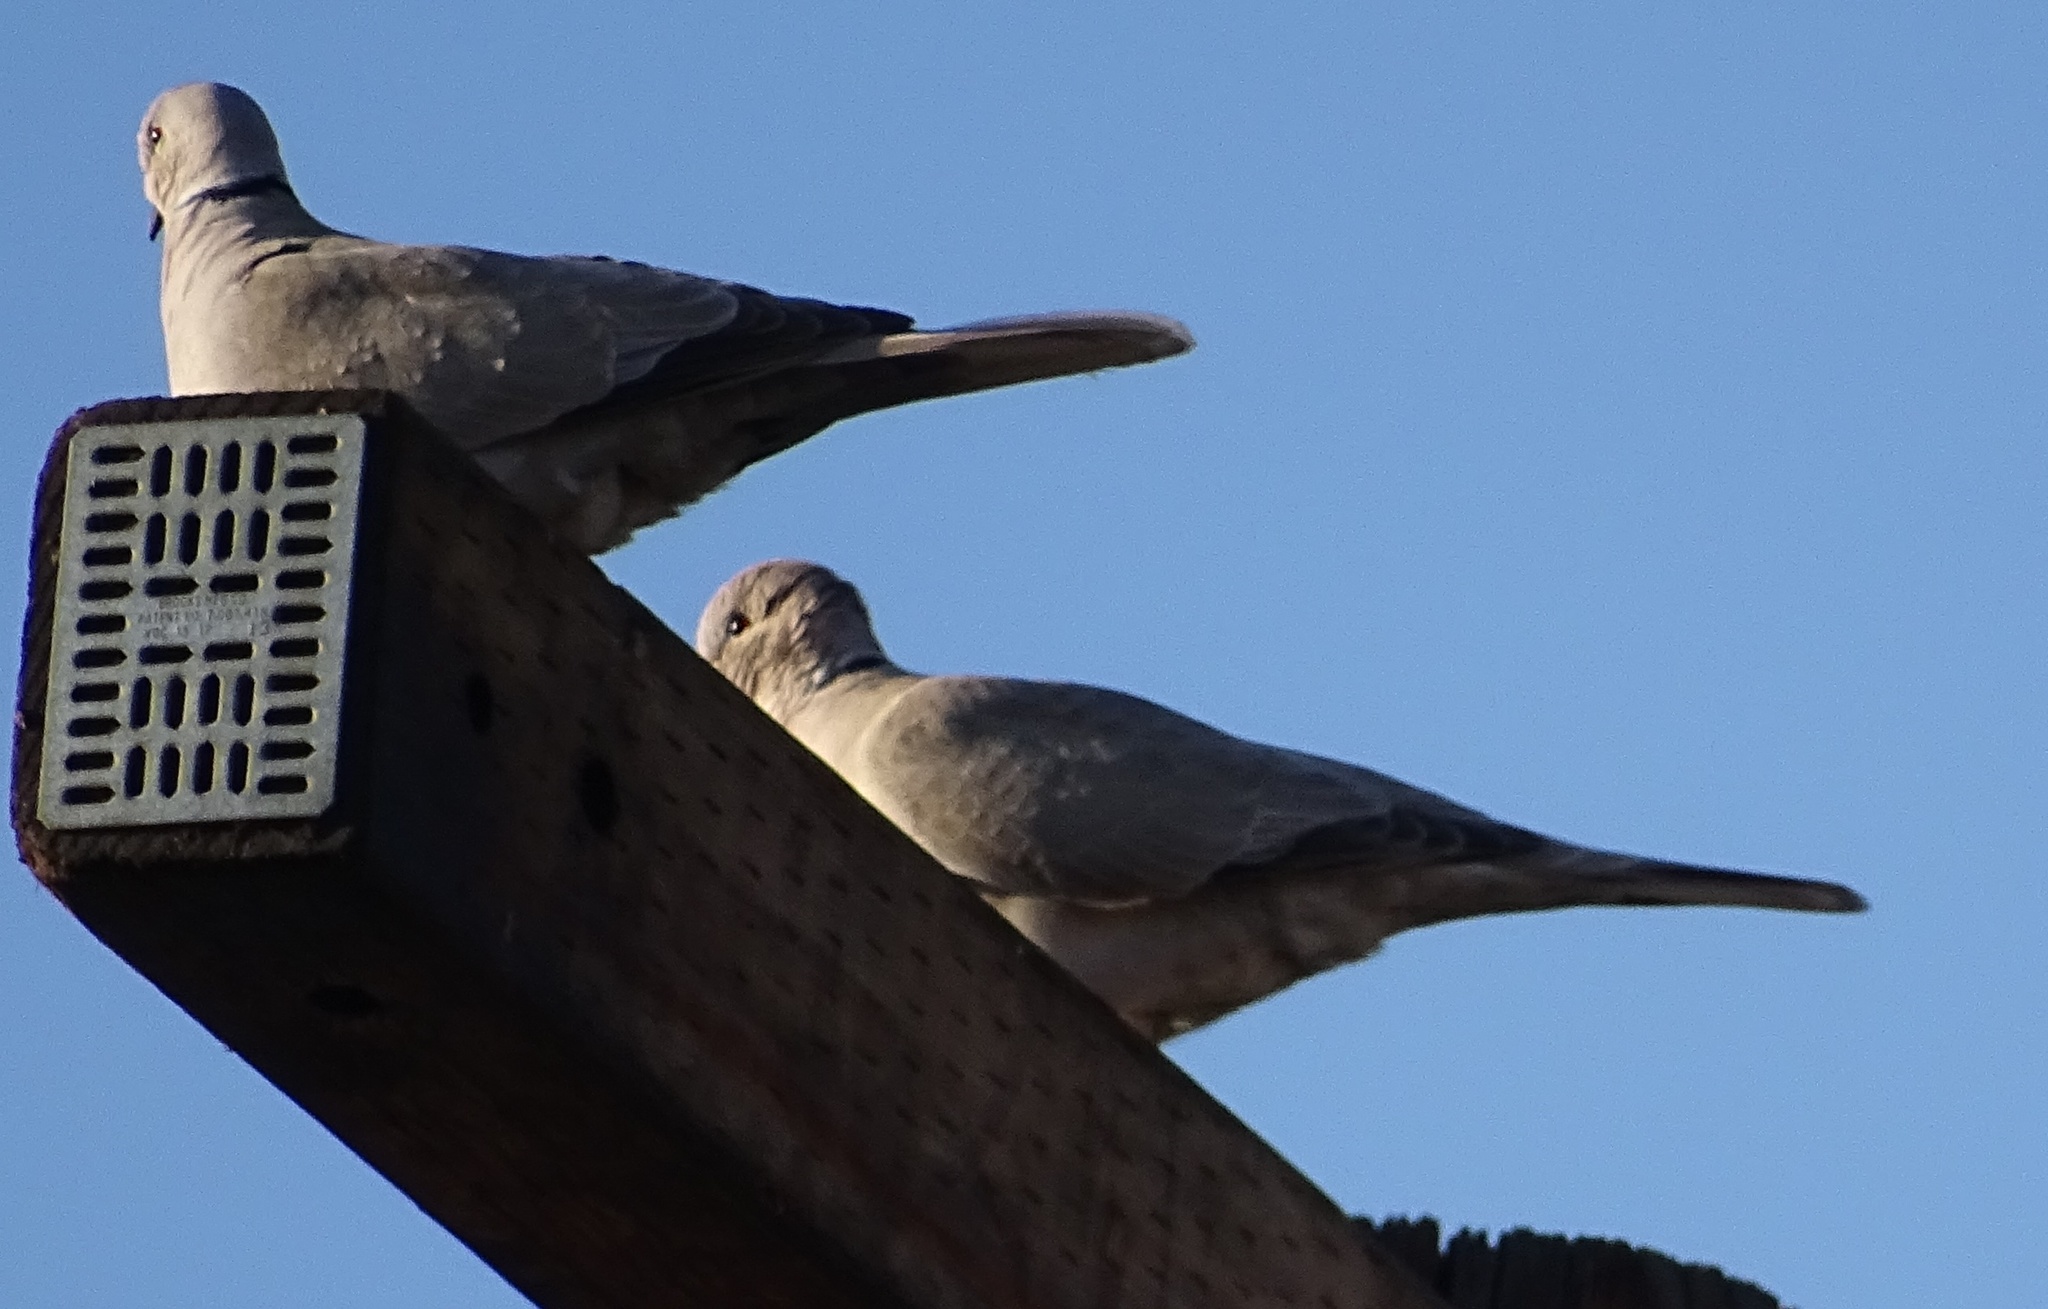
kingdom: Animalia
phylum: Chordata
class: Aves
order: Columbiformes
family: Columbidae
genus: Streptopelia
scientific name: Streptopelia decaocto
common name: Eurasian collared dove
